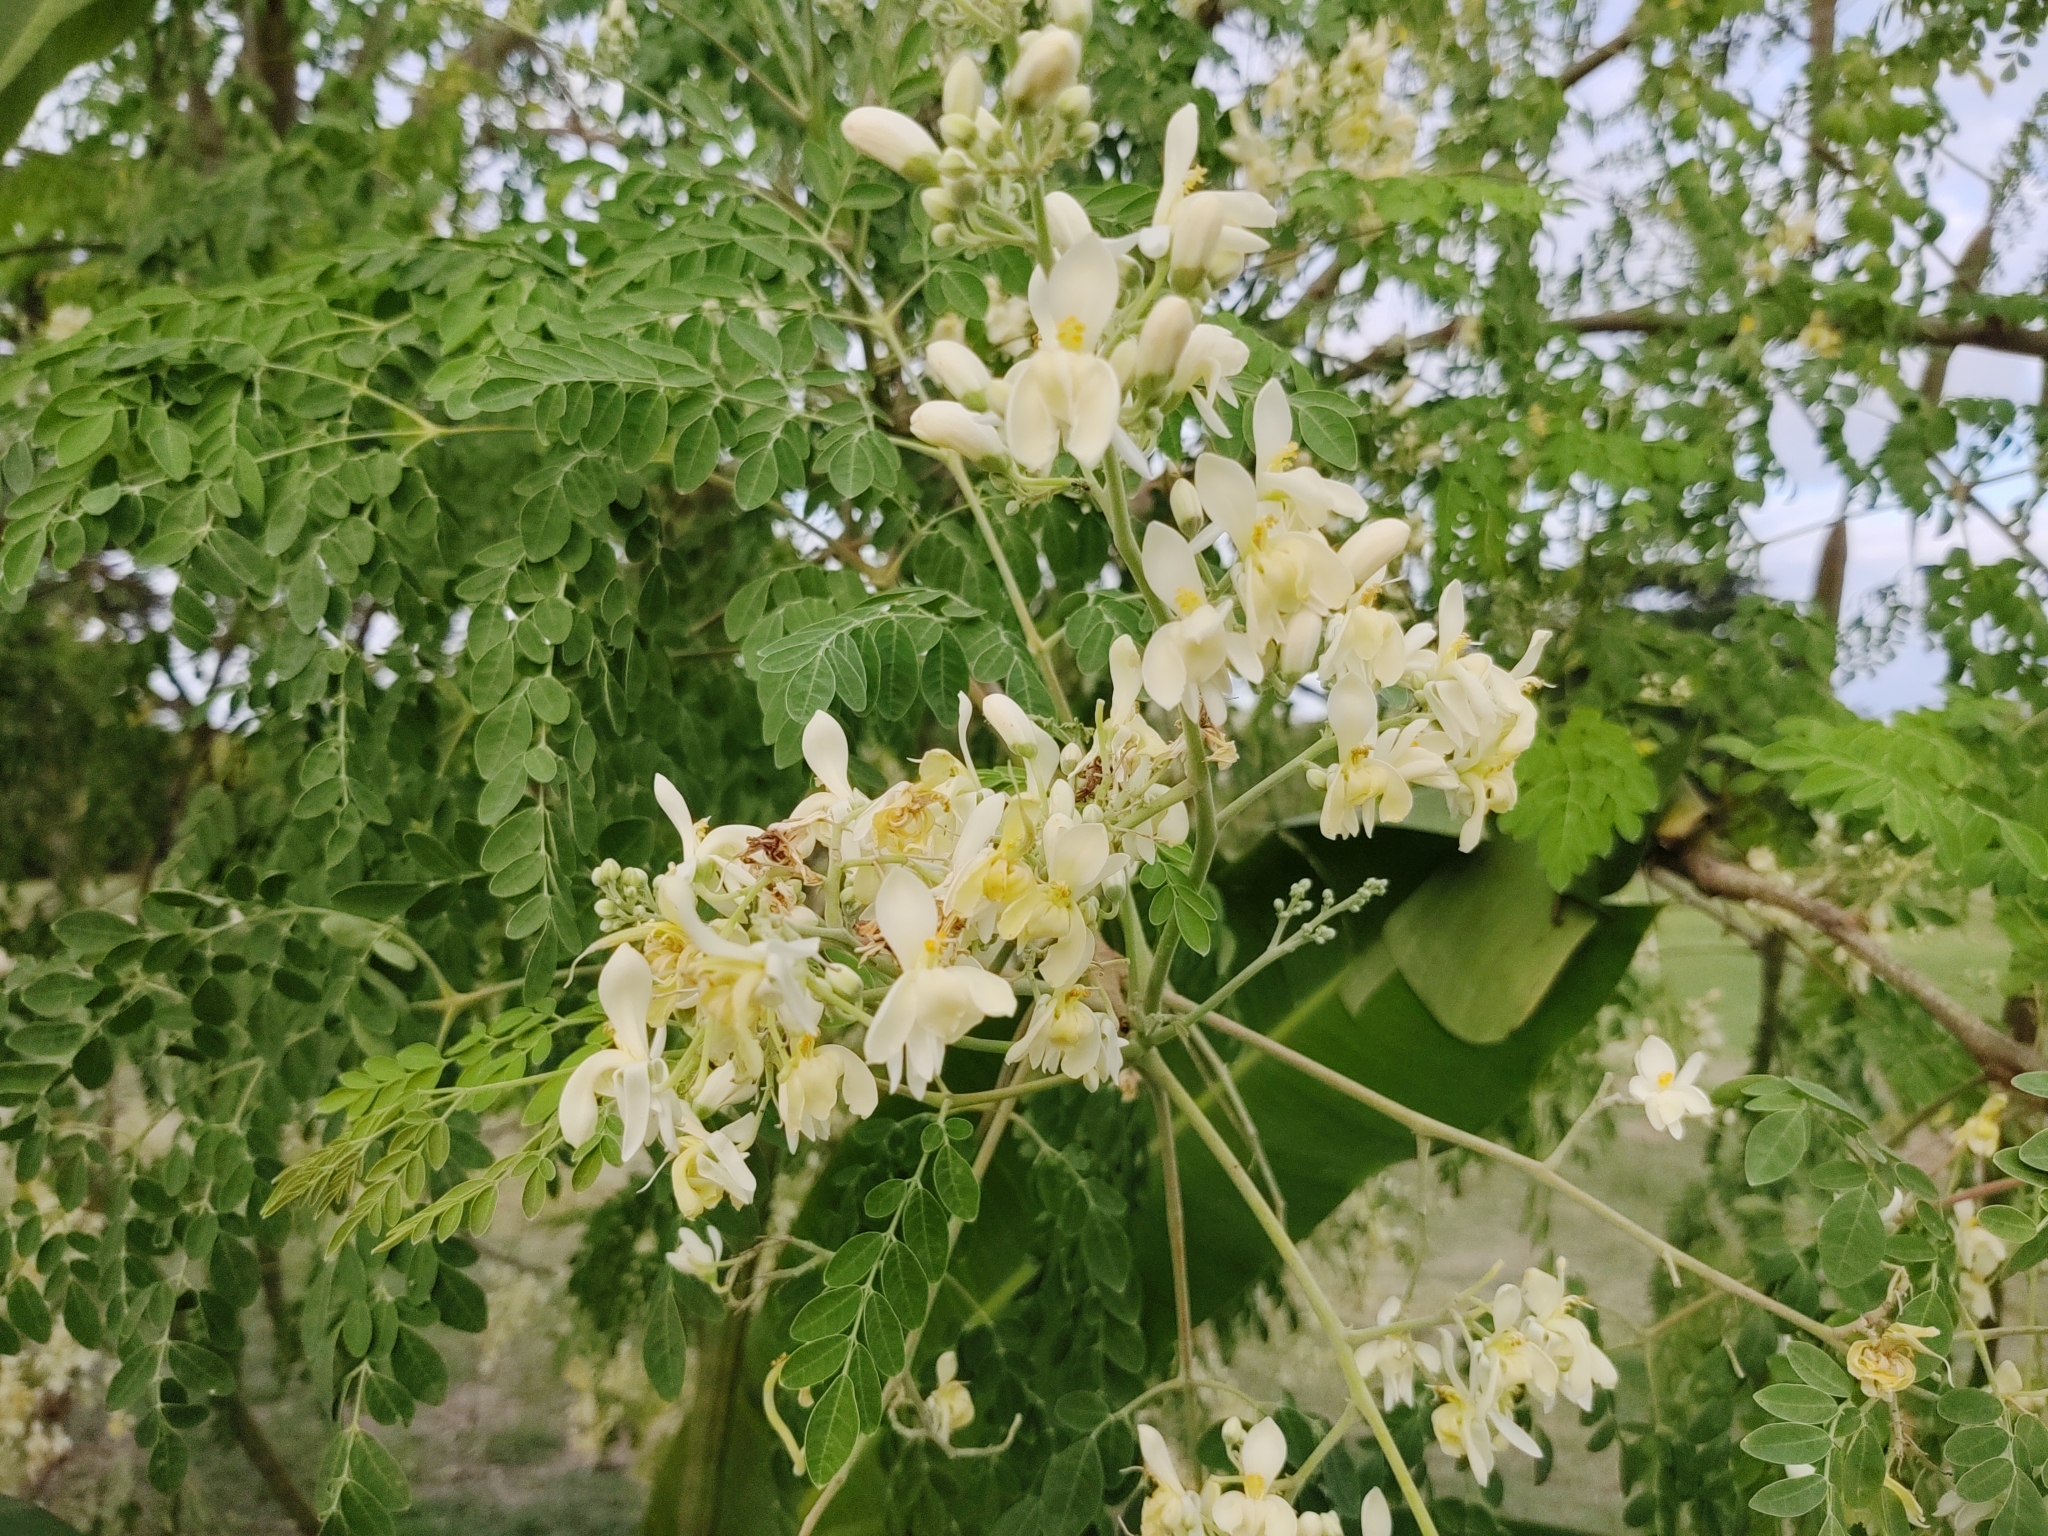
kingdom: Plantae
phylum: Tracheophyta
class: Magnoliopsida
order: Brassicales
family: Moringaceae
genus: Moringa
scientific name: Moringa oleifera
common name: Horseradish-tree
